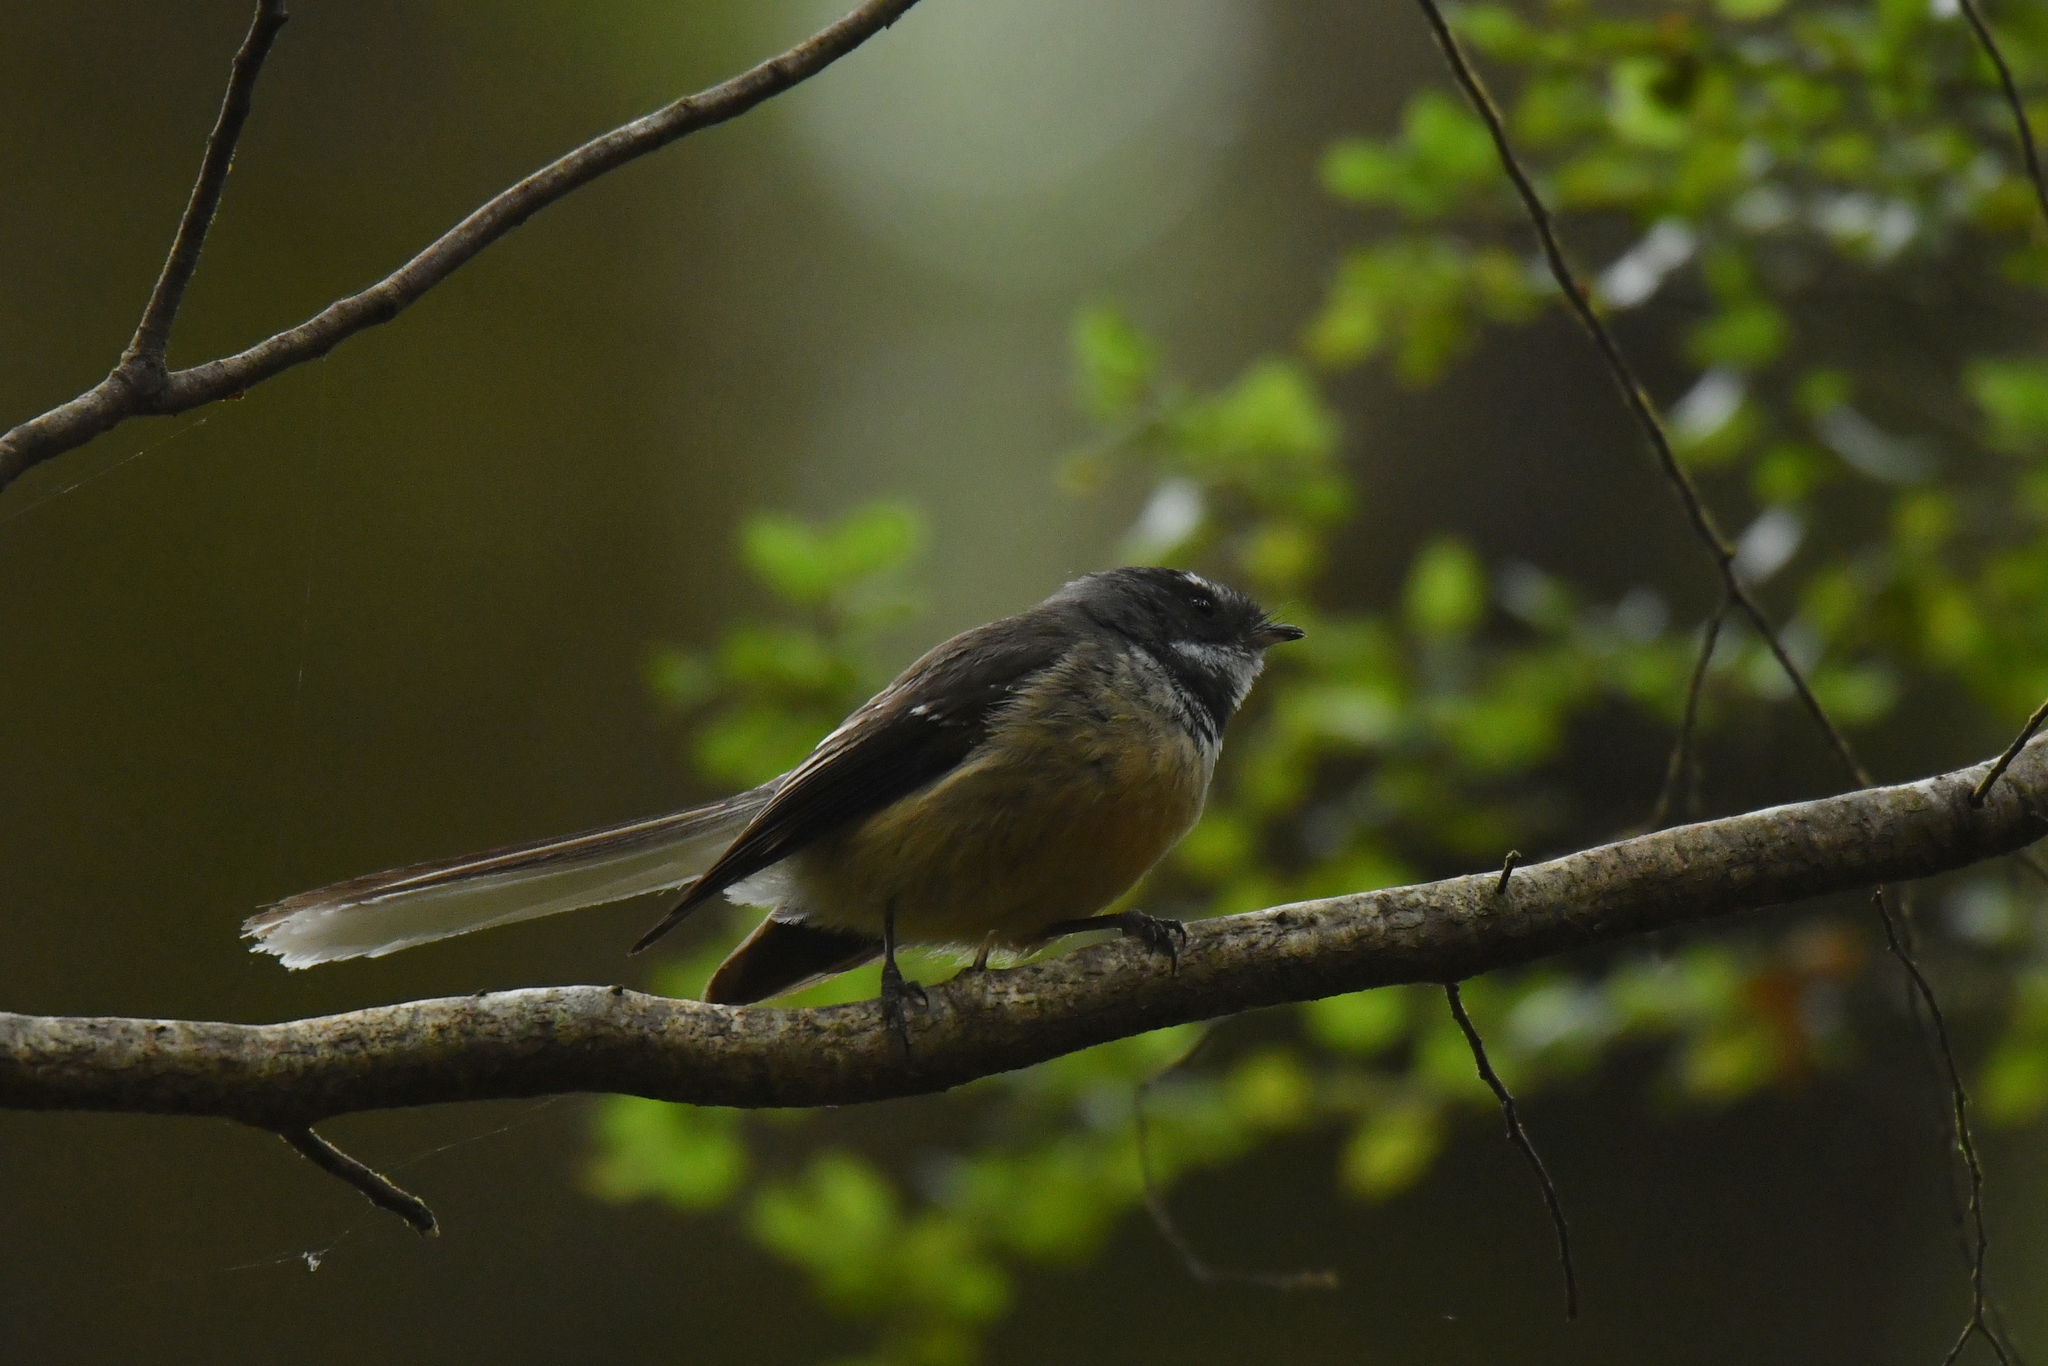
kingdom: Animalia
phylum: Chordata
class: Aves
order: Passeriformes
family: Rhipiduridae
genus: Rhipidura
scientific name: Rhipidura fuliginosa
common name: New zealand fantail
